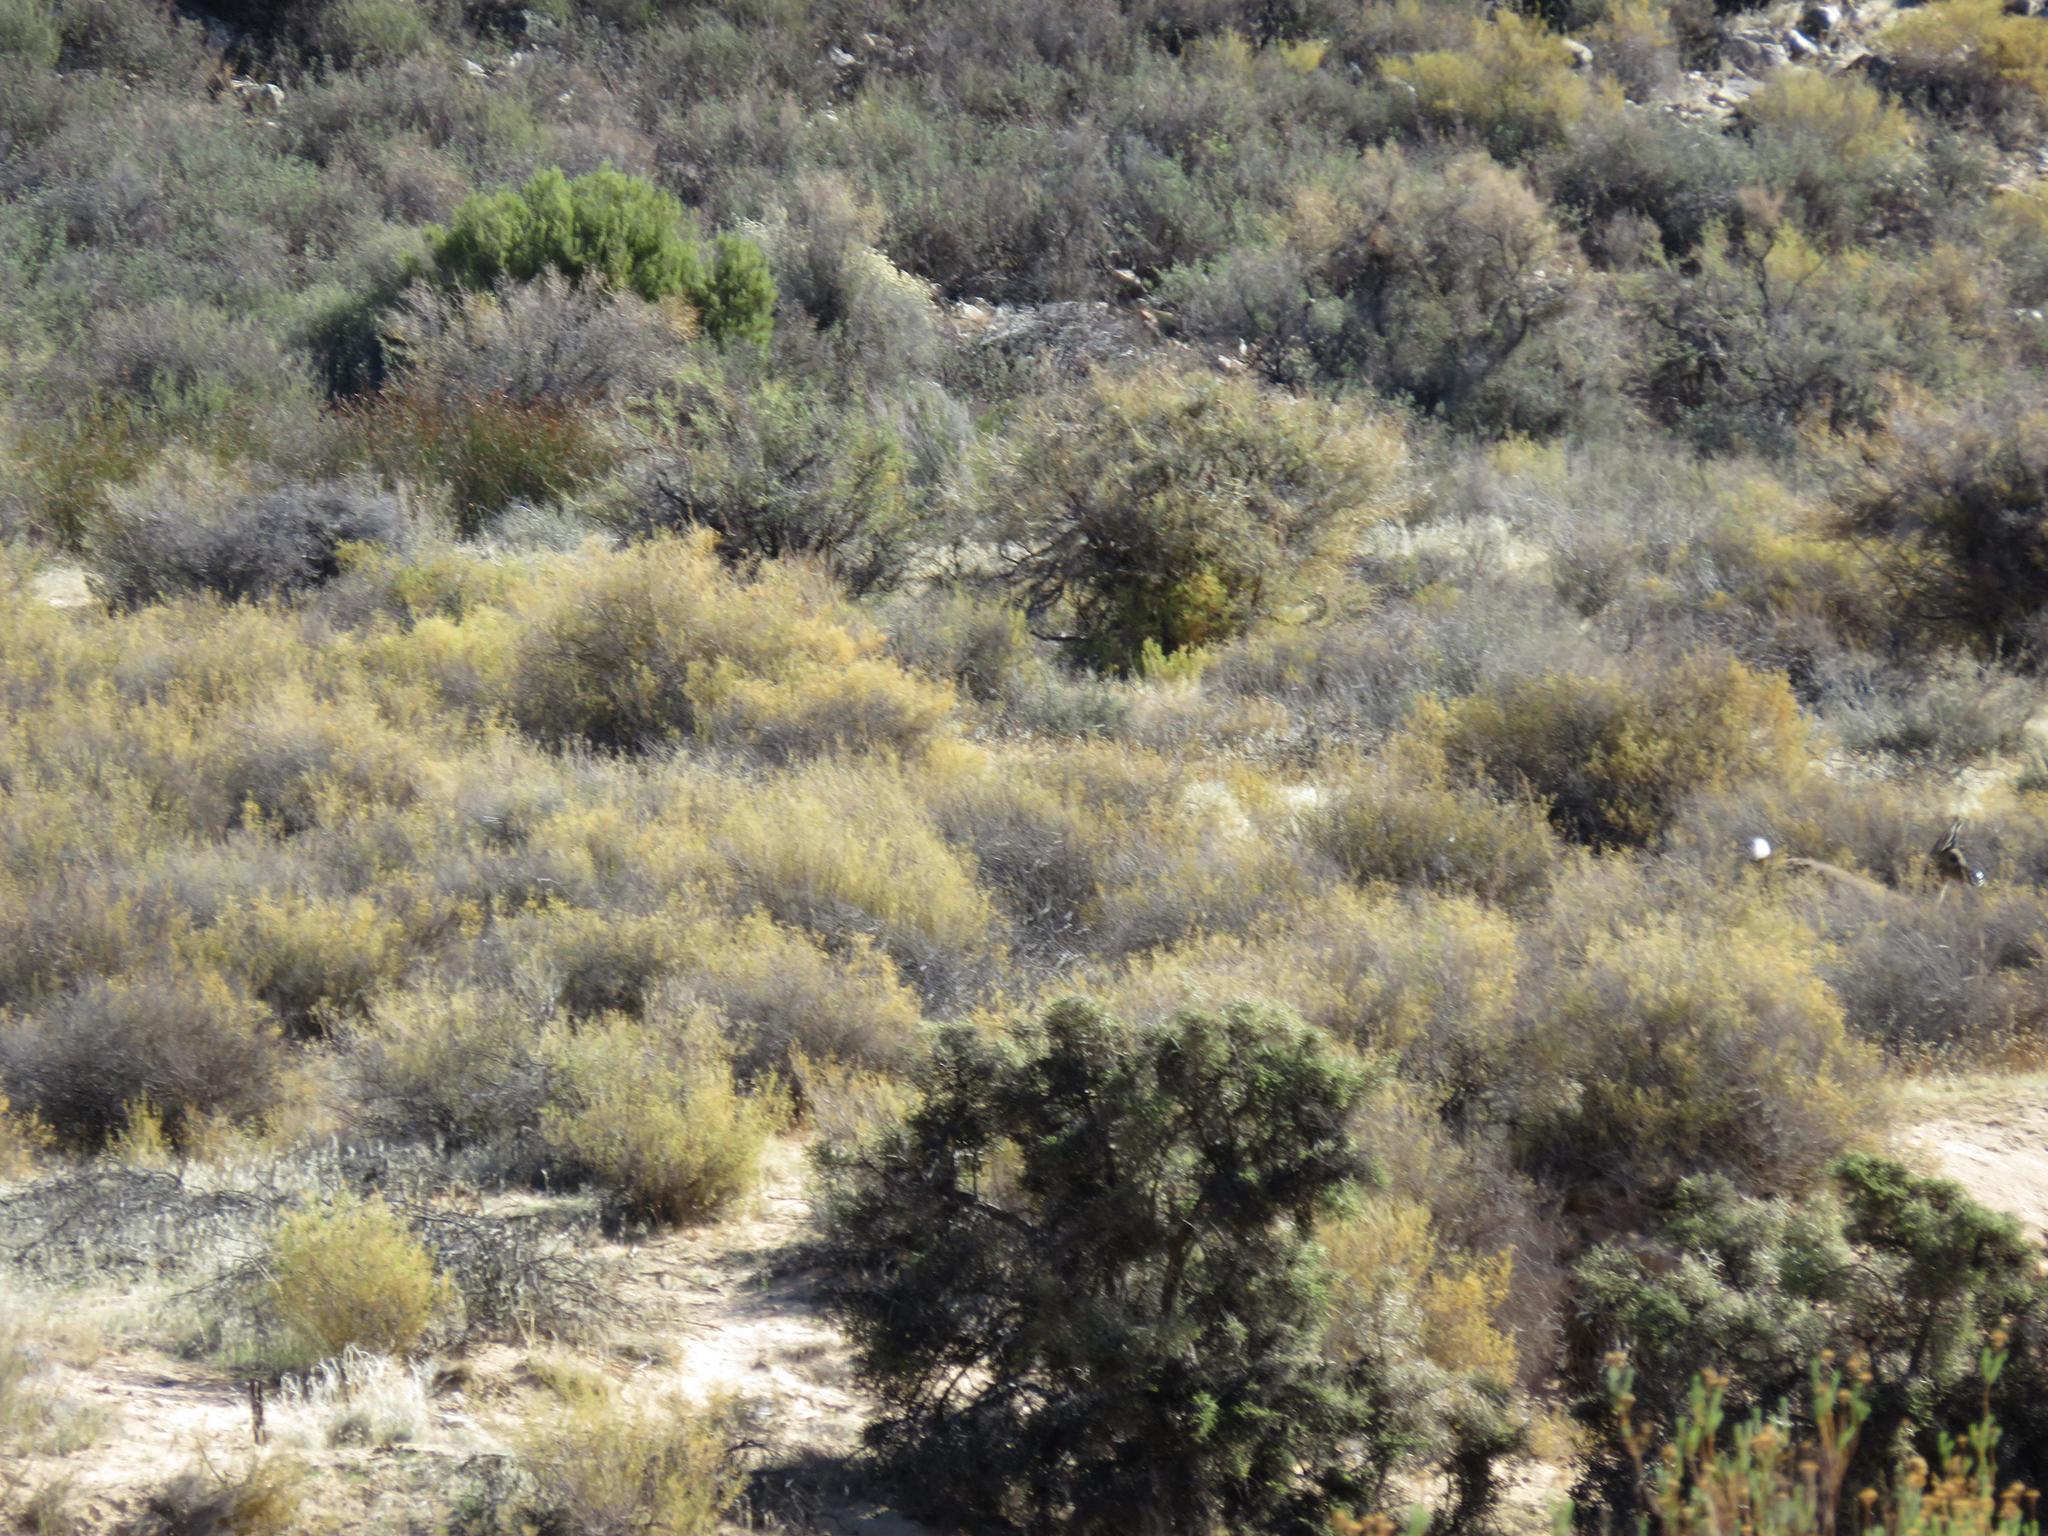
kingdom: Plantae
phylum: Tracheophyta
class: Magnoliopsida
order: Caryophyllales
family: Aizoaceae
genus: Aizoon
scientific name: Aizoon africanum
